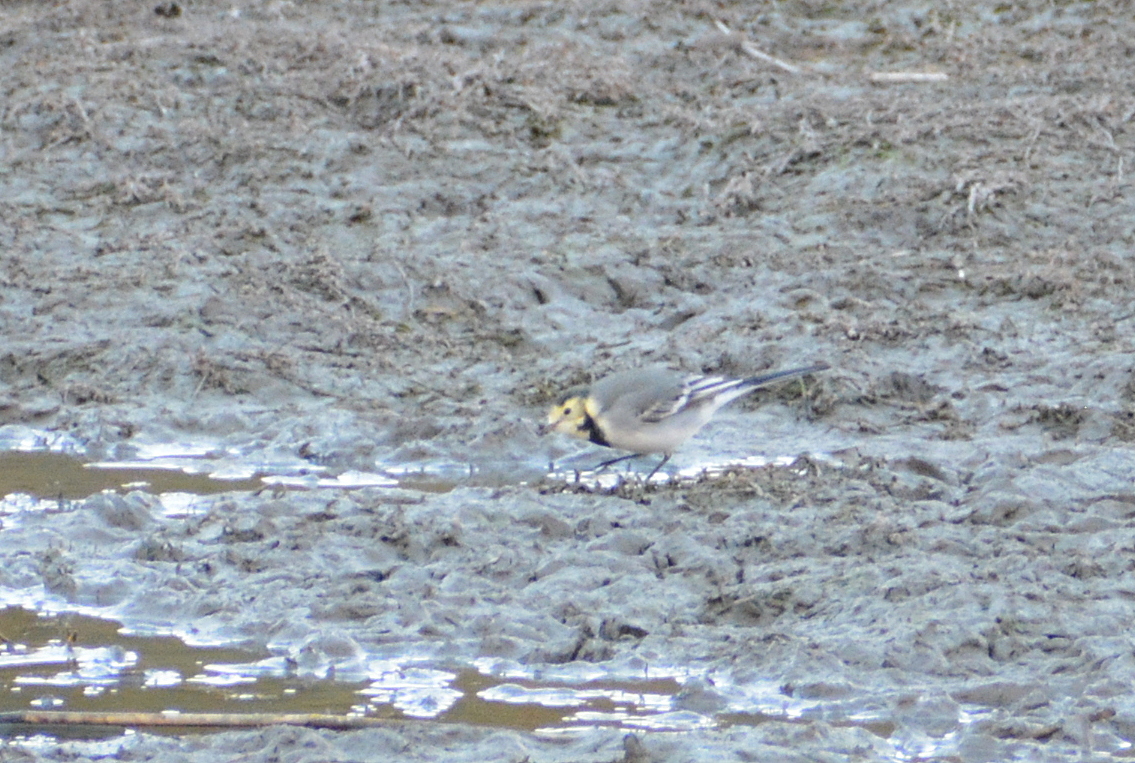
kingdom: Animalia
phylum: Chordata
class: Aves
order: Passeriformes
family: Motacillidae
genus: Motacilla
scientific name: Motacilla alba
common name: White wagtail
